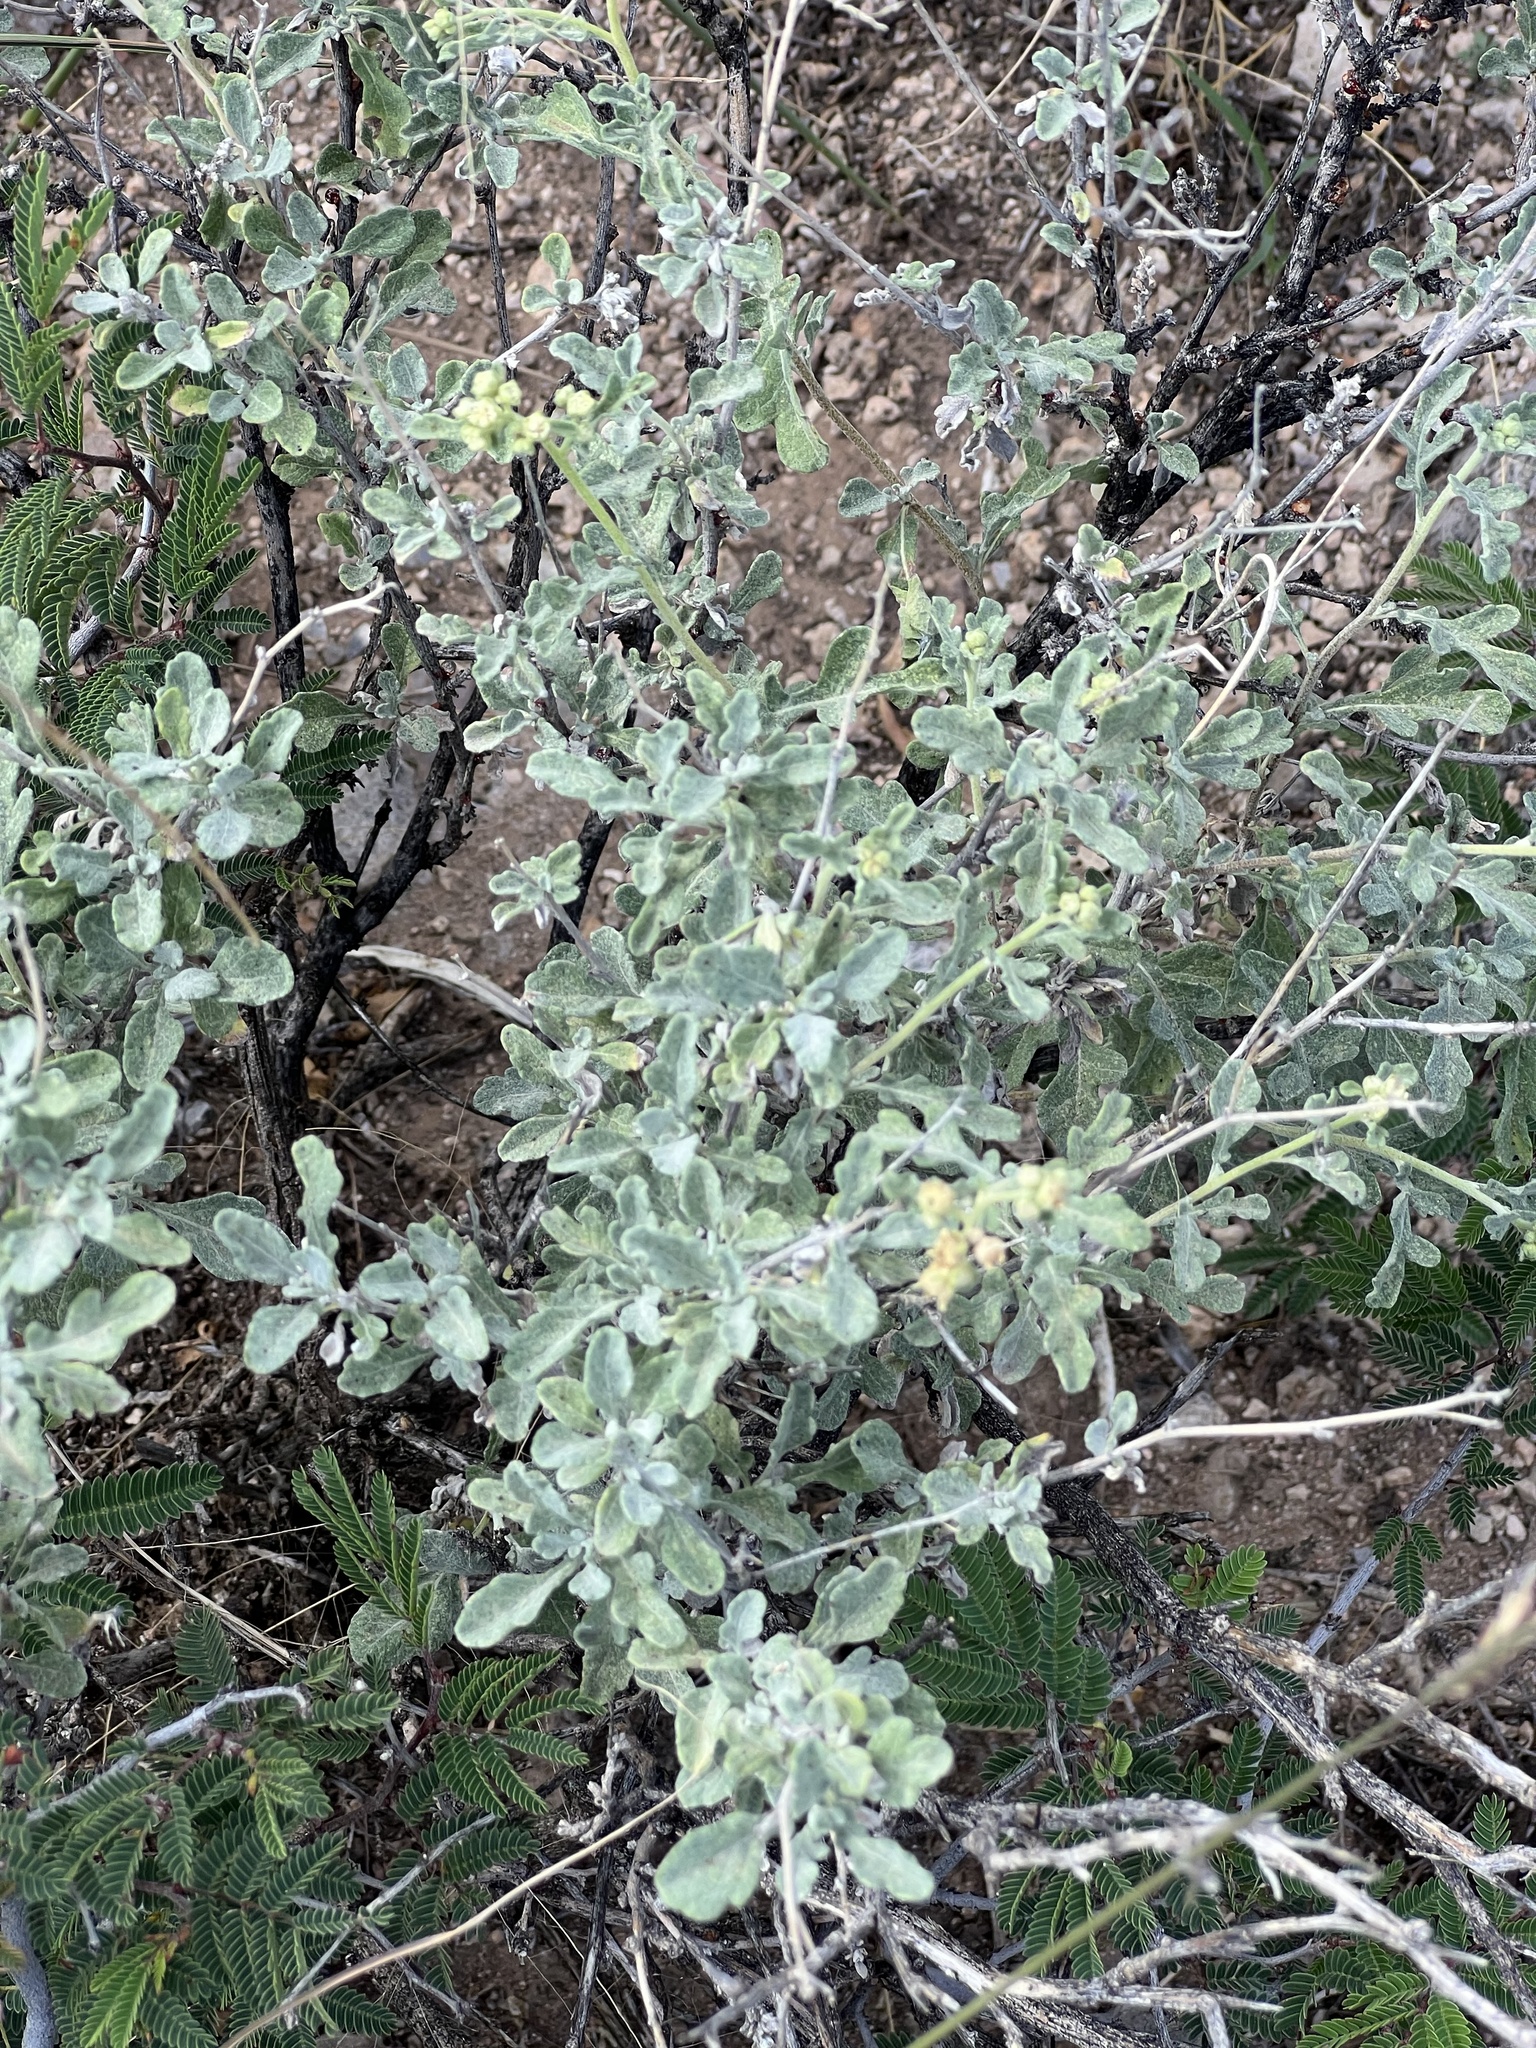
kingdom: Plantae
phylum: Tracheophyta
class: Magnoliopsida
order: Asterales
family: Asteraceae
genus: Parthenium
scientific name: Parthenium incanum
